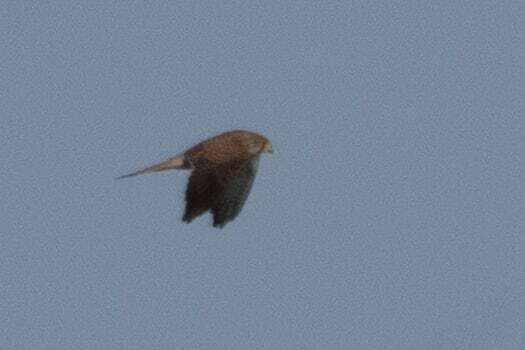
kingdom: Animalia
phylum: Chordata
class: Aves
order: Falconiformes
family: Falconidae
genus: Falco
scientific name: Falco tinnunculus
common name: Common kestrel
